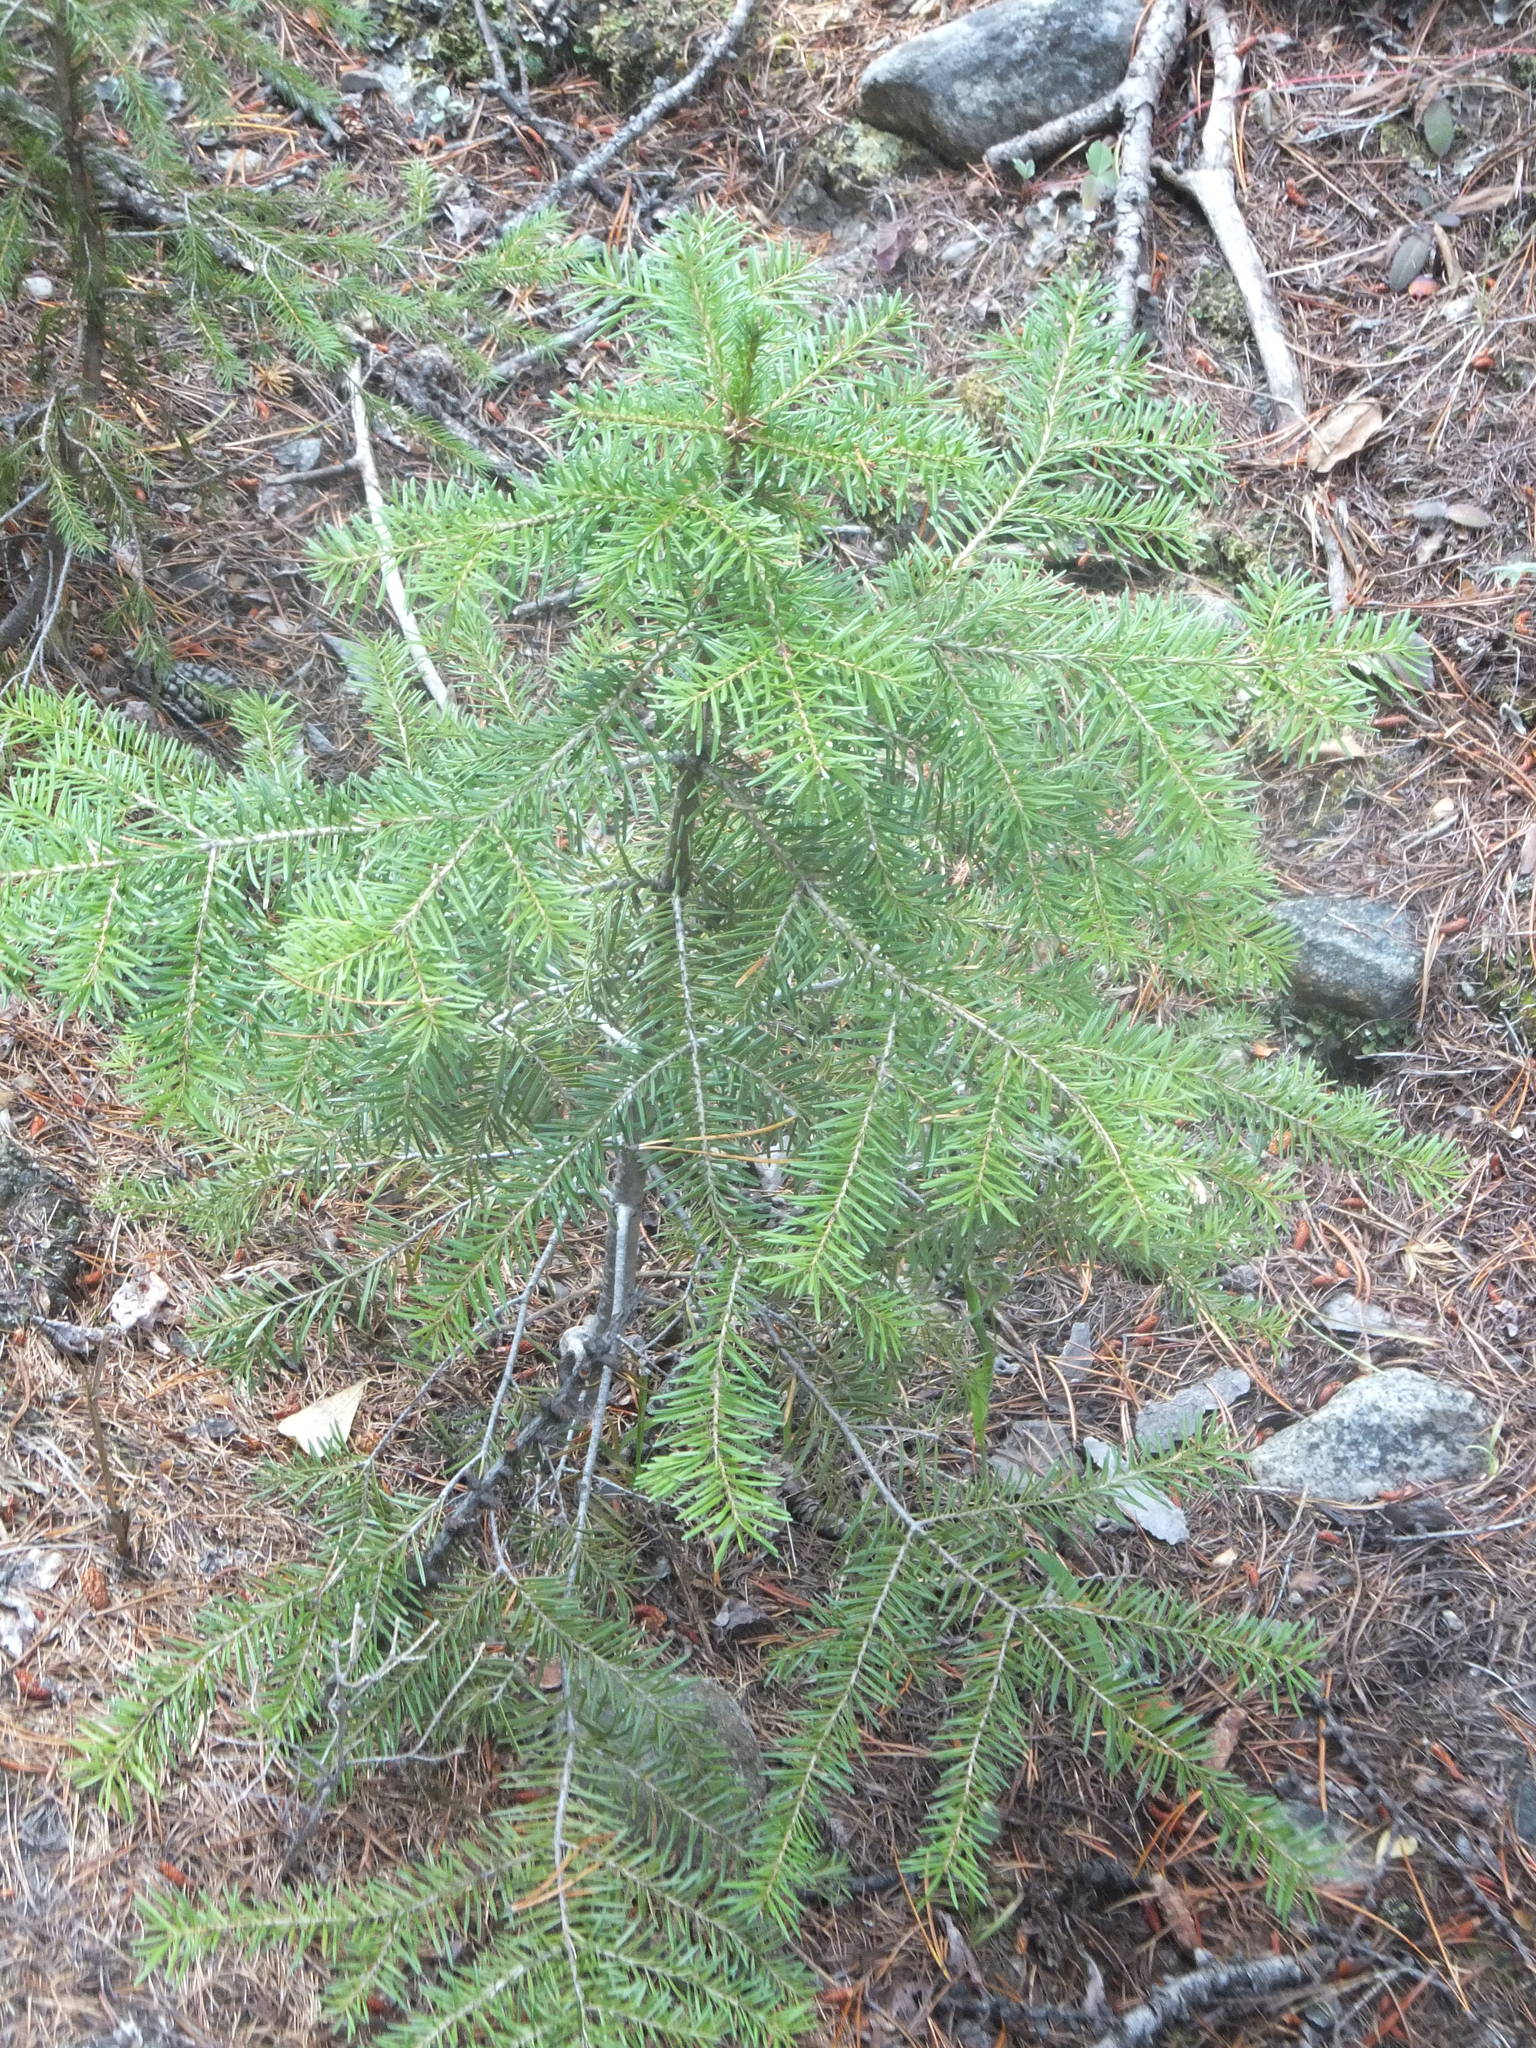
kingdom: Plantae
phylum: Tracheophyta
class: Pinopsida
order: Pinales
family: Pinaceae
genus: Pseudotsuga
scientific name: Pseudotsuga menziesii
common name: Douglas fir
